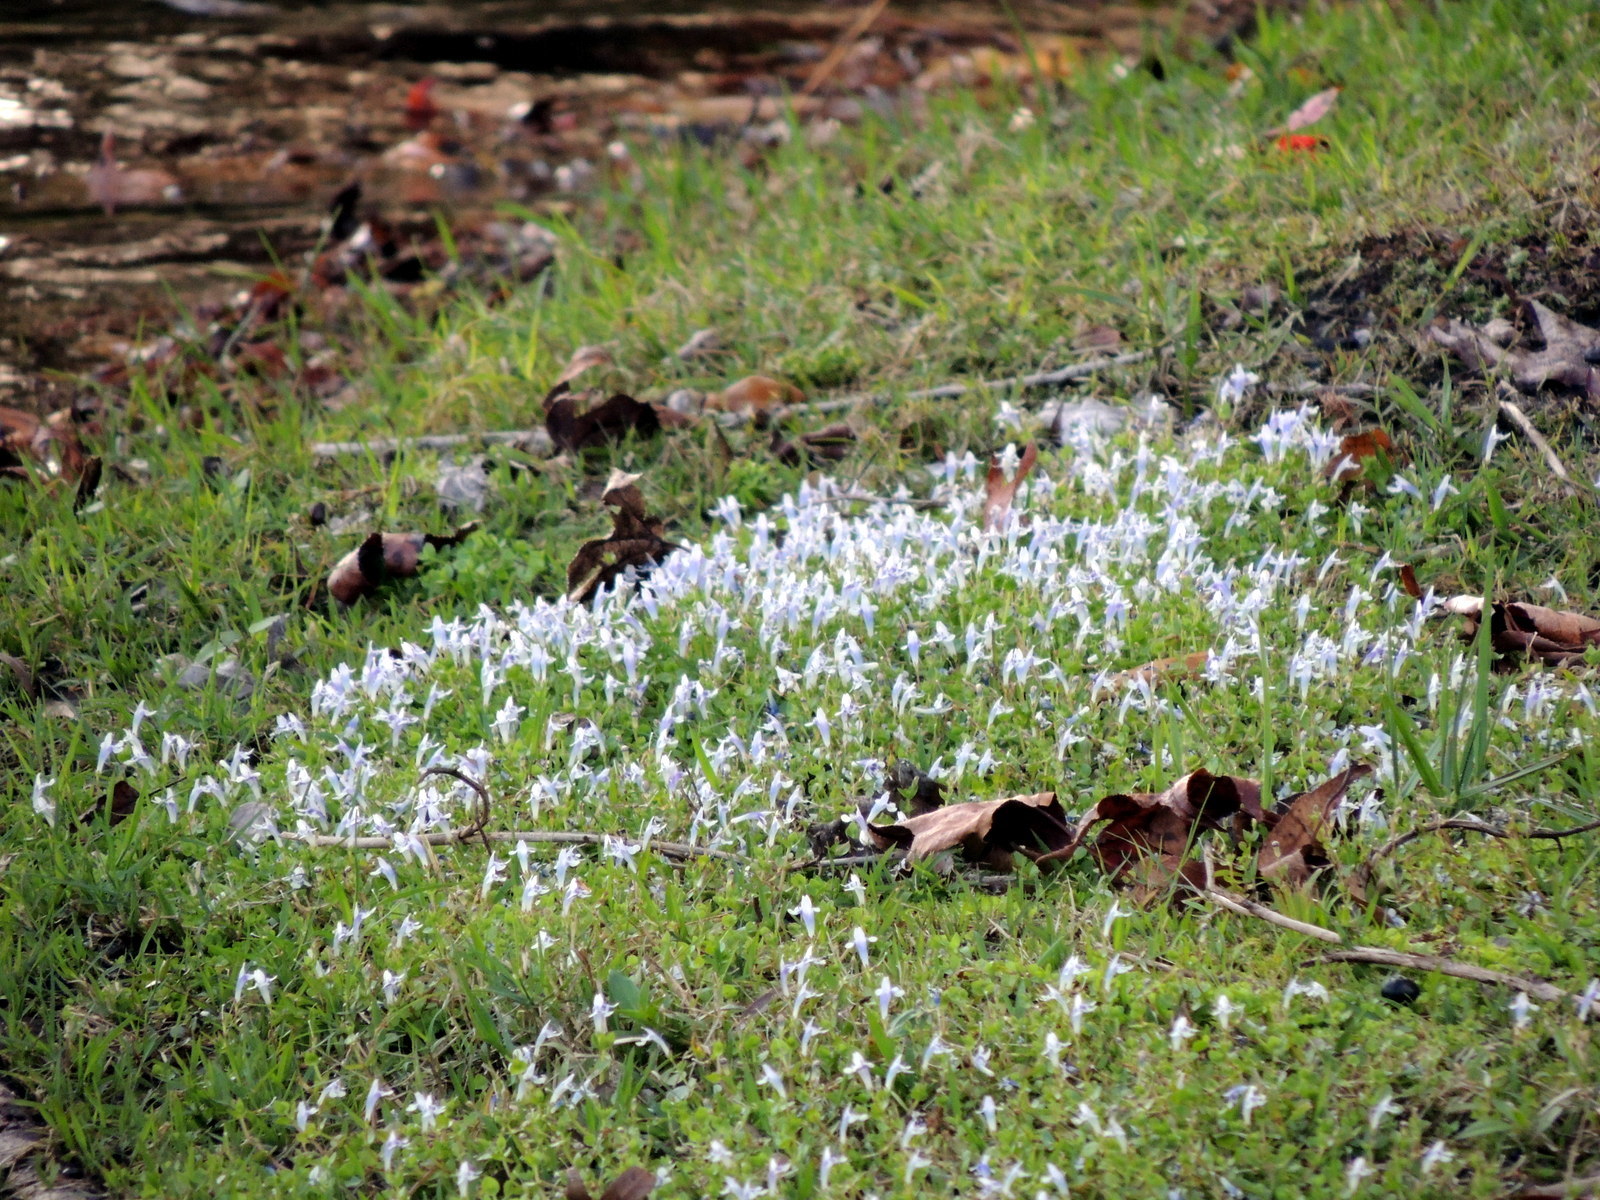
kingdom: Plantae
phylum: Tracheophyta
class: Magnoliopsida
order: Lamiales
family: Linderniaceae
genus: Lindernia
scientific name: Lindernia rotundifolia
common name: Baby’s tears
